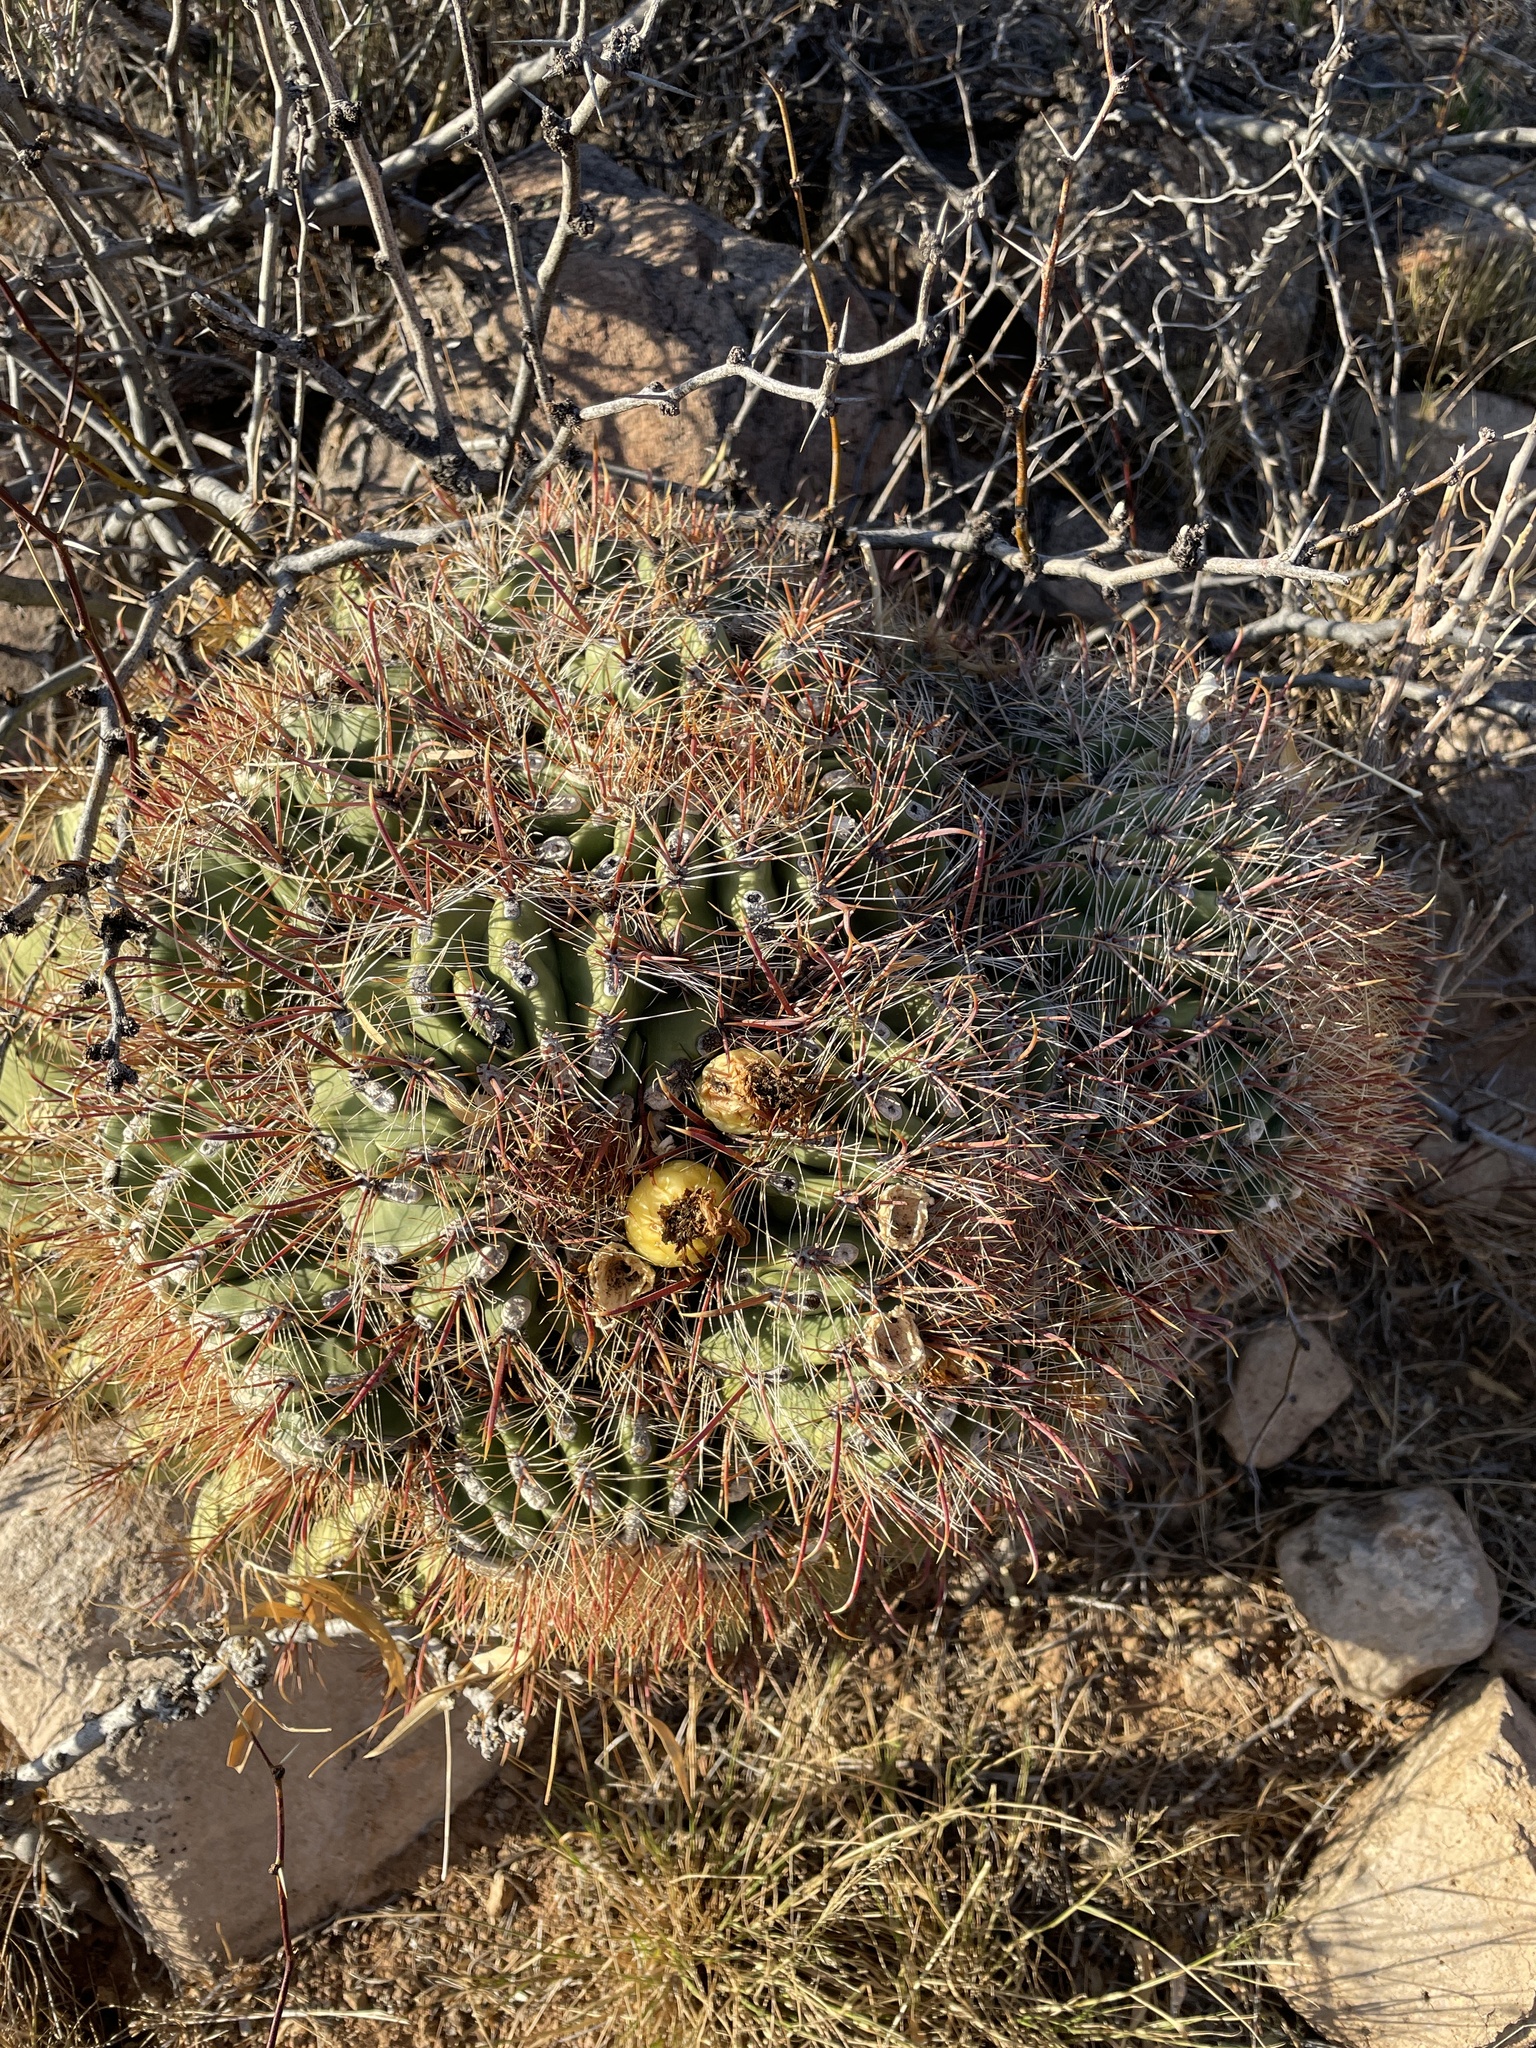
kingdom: Plantae
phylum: Tracheophyta
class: Magnoliopsida
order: Caryophyllales
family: Cactaceae
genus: Ferocactus
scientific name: Ferocactus wislizeni
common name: Candy barrel cactus
